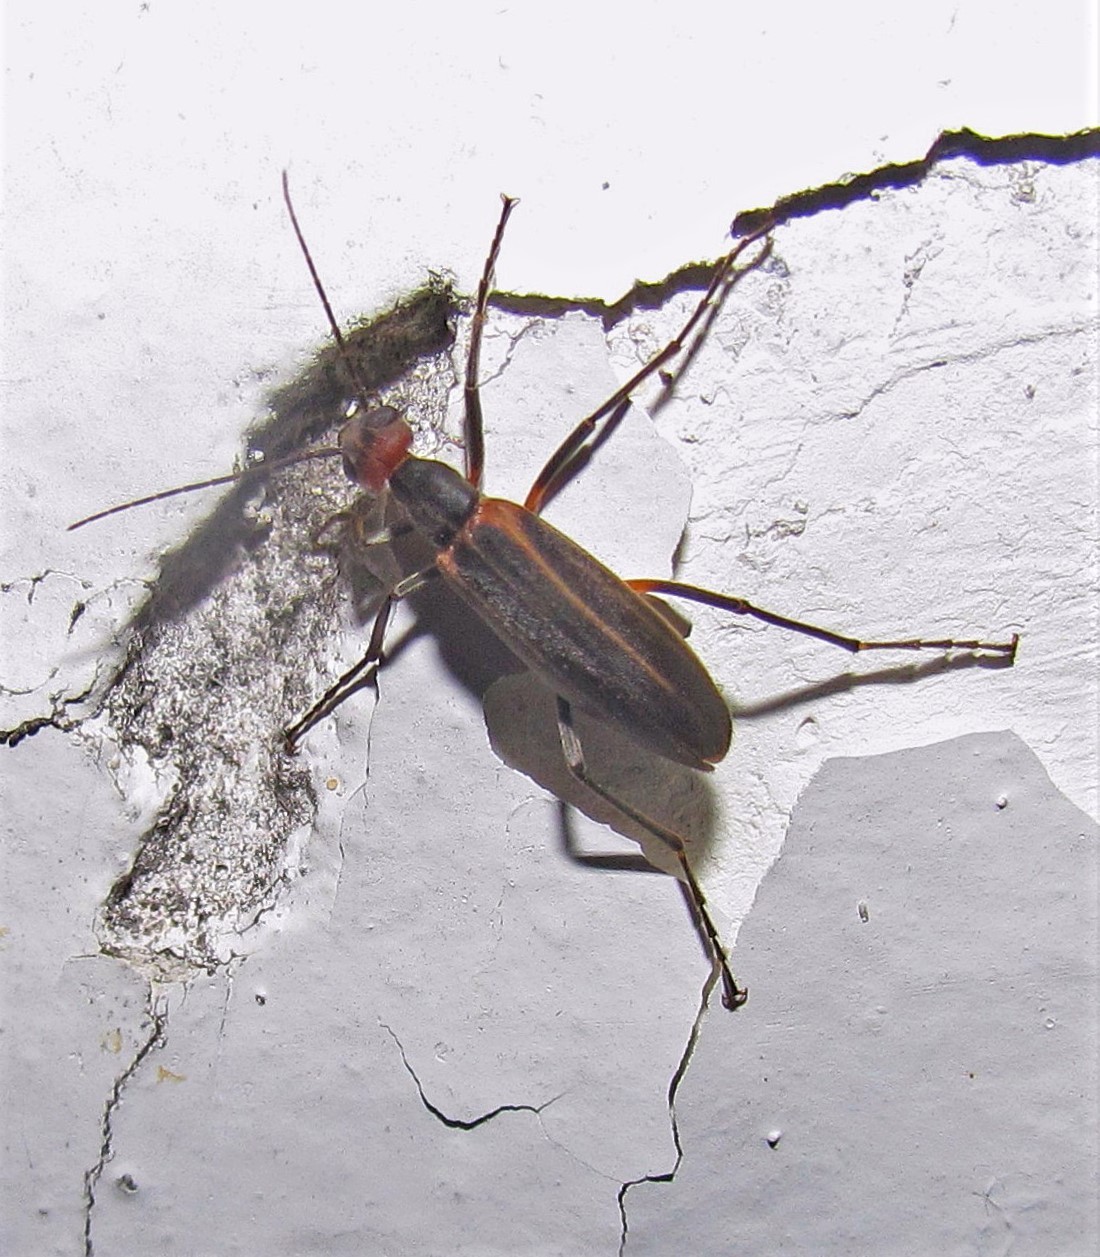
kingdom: Animalia
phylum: Arthropoda
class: Insecta
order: Coleoptera
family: Meloidae
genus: Epicauta
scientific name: Epicauta grammica
